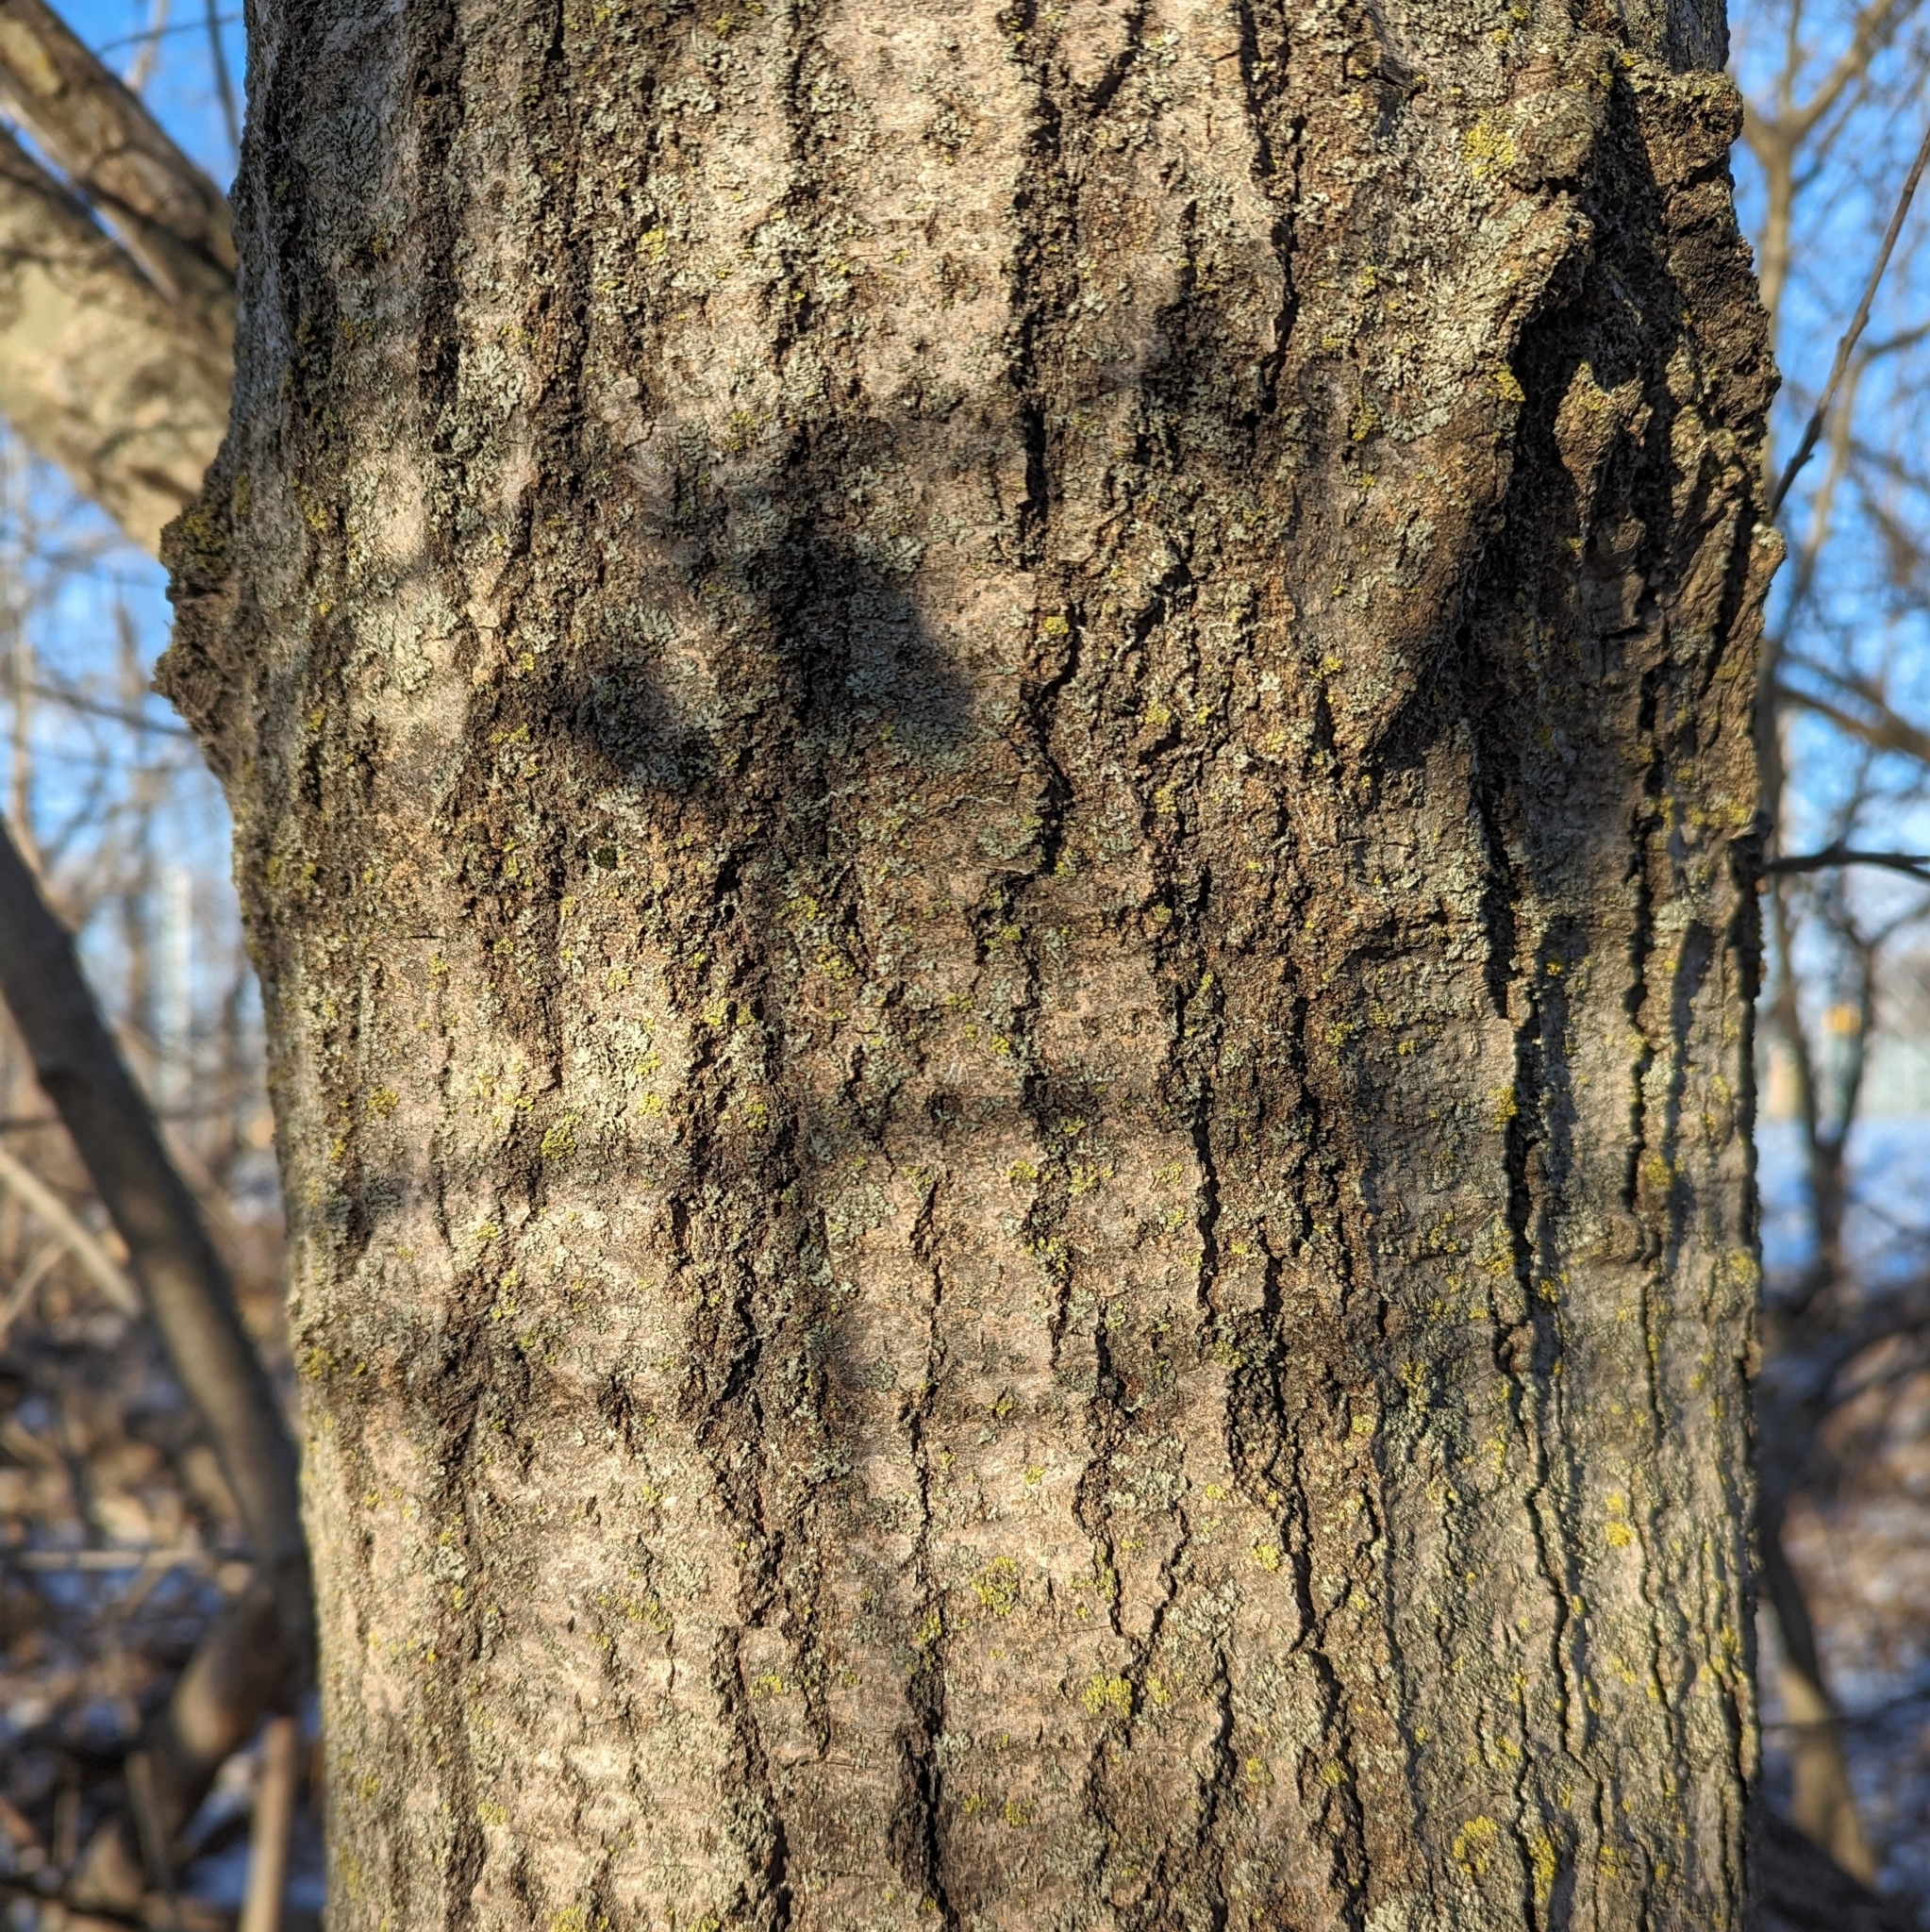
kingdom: Plantae
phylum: Tracheophyta
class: Magnoliopsida
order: Malpighiales
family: Salicaceae
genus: Populus
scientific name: Populus tremuloides
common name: Quaking aspen
